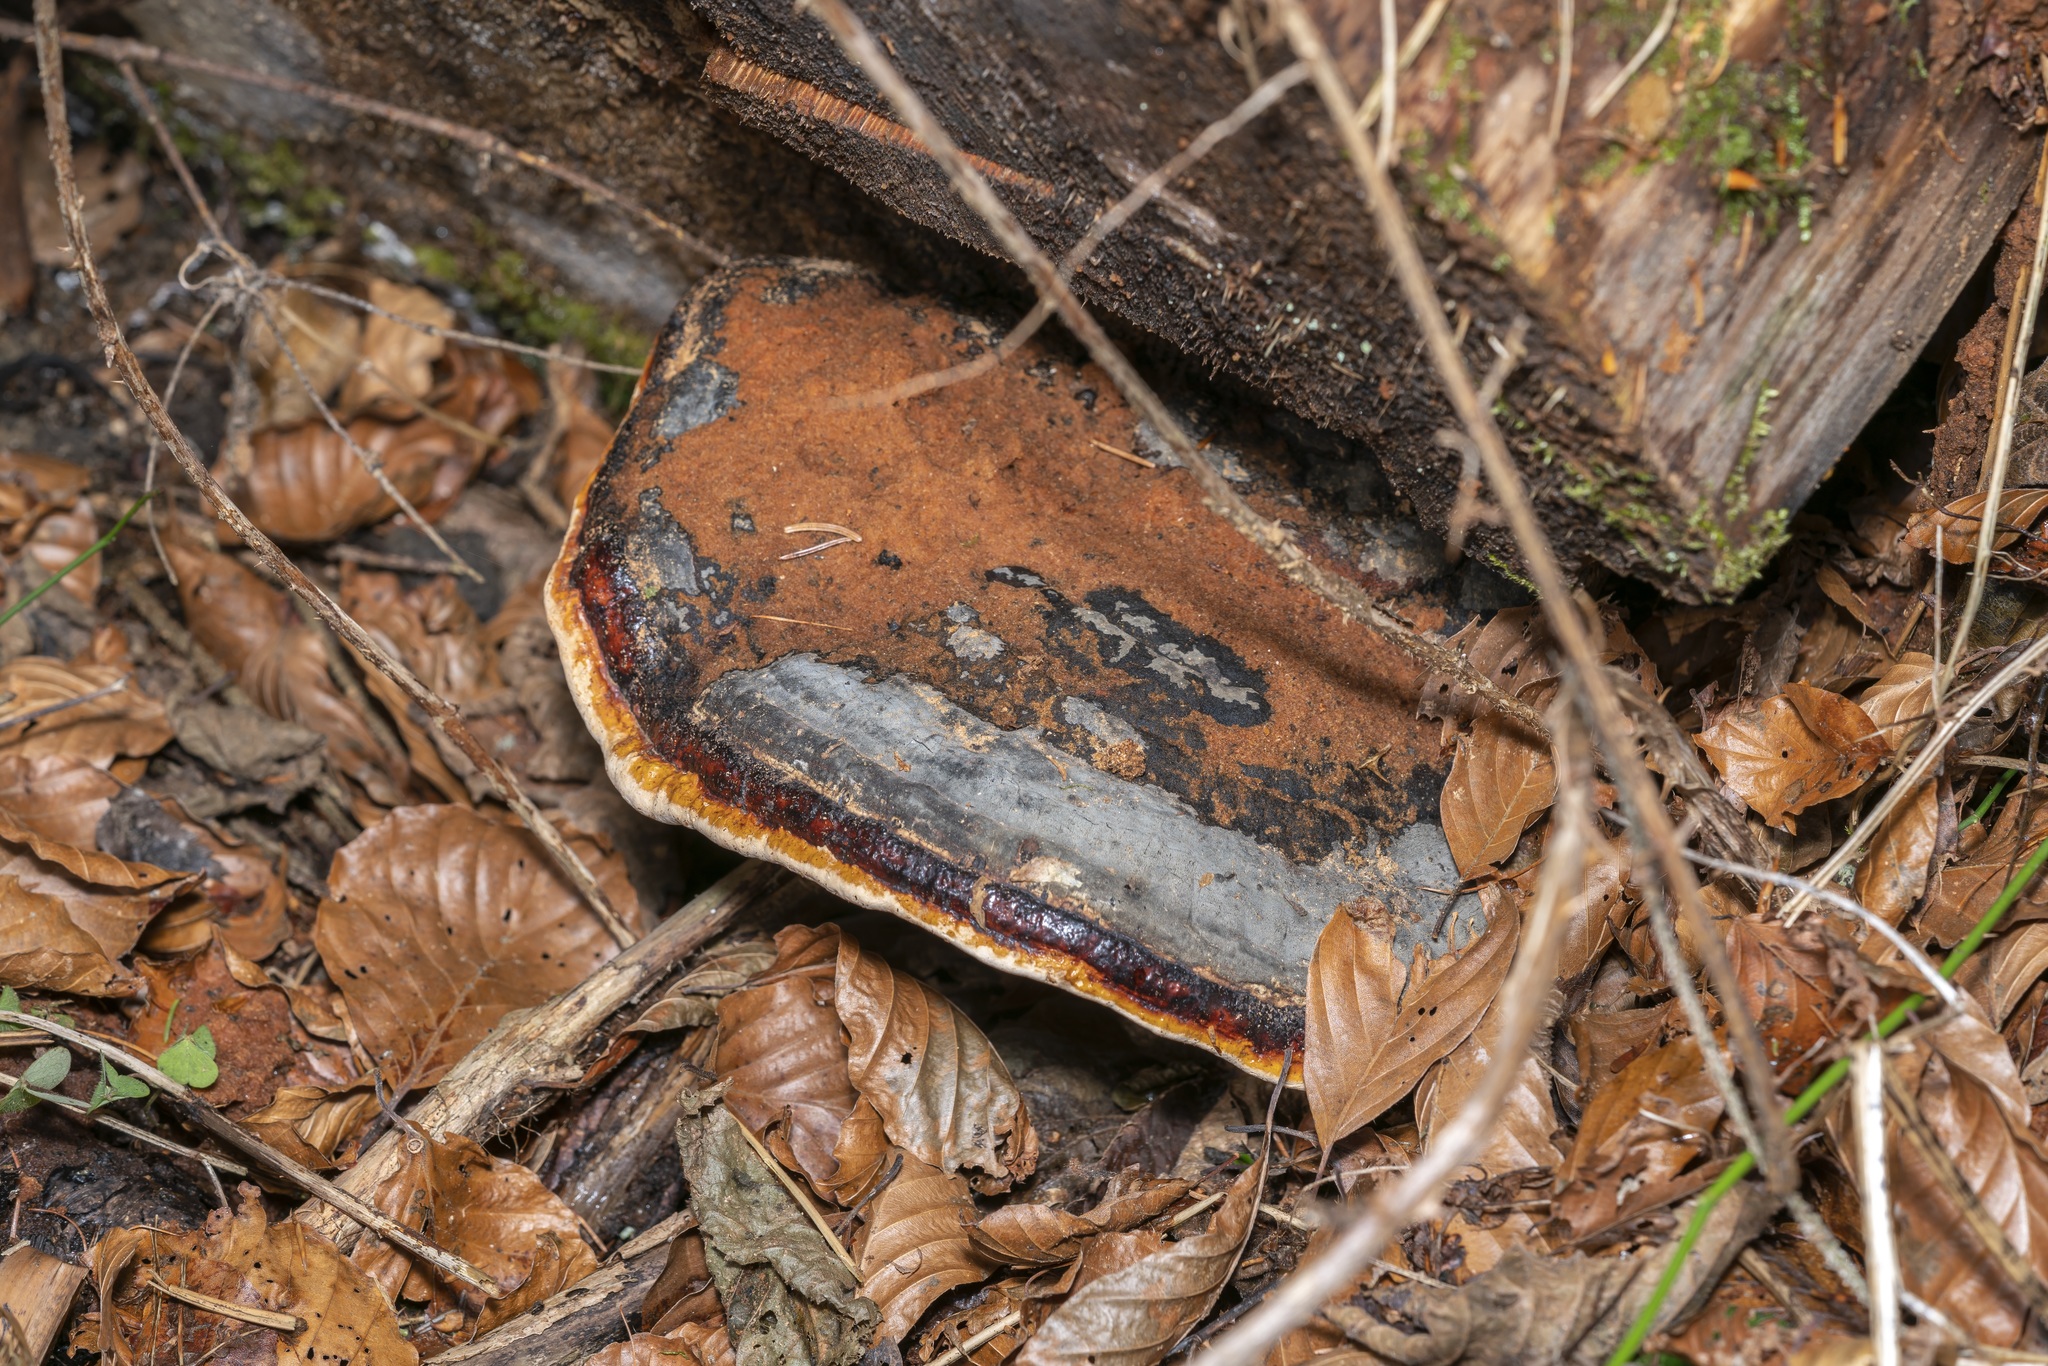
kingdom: Fungi
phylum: Basidiomycota
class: Agaricomycetes
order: Polyporales
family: Fomitopsidaceae
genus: Fomitopsis
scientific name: Fomitopsis pinicola
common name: Red-belted bracket
